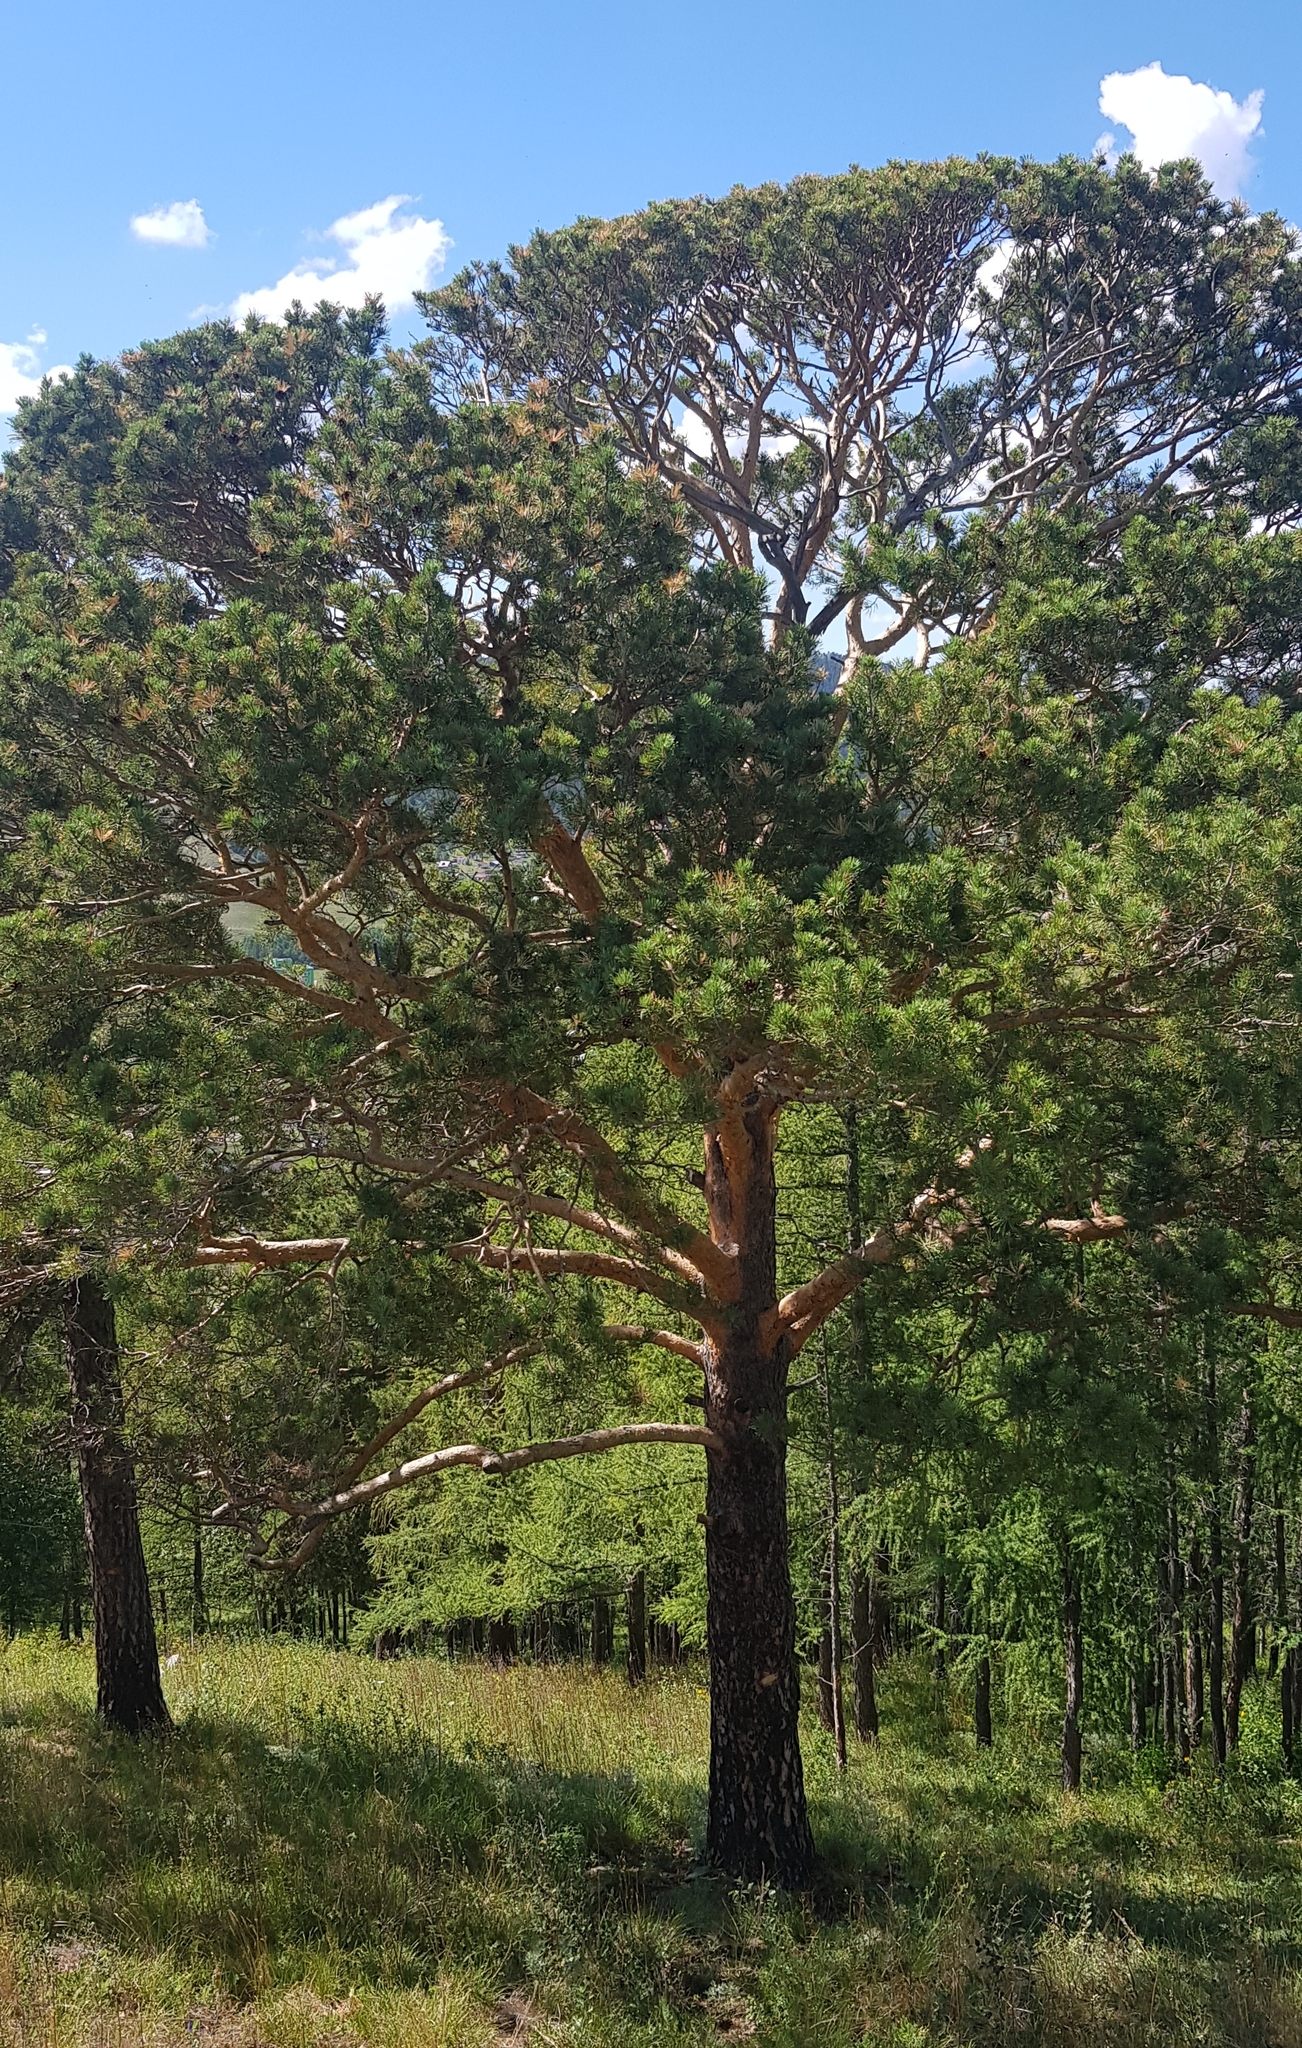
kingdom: Plantae
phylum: Tracheophyta
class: Pinopsida
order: Pinales
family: Pinaceae
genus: Pinus
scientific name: Pinus sylvestris
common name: Scots pine
